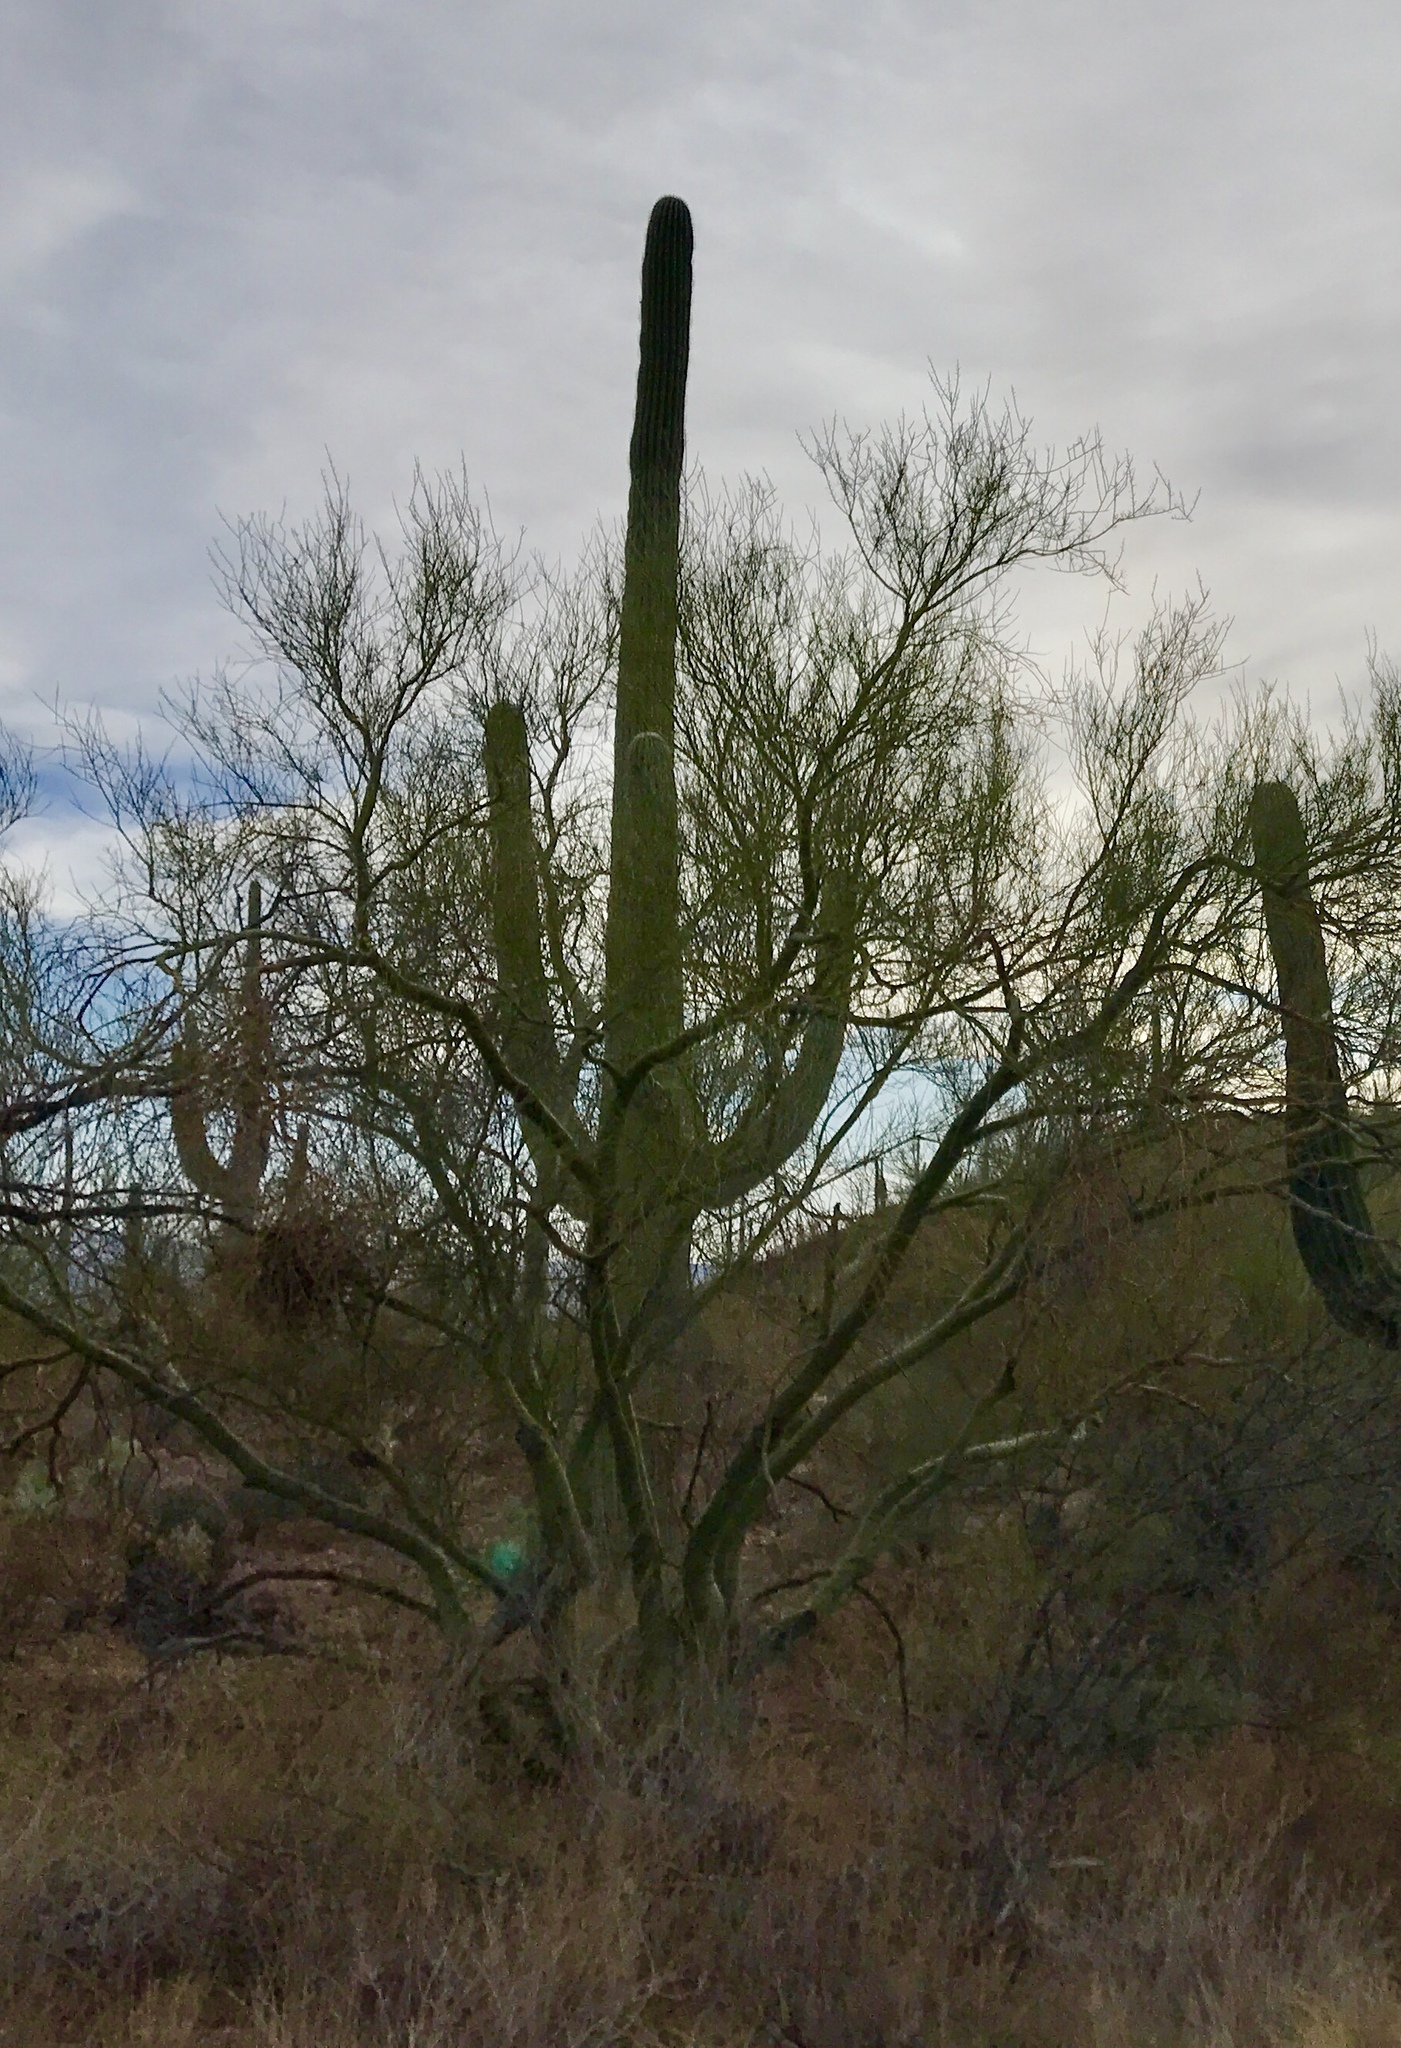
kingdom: Plantae
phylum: Tracheophyta
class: Magnoliopsida
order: Fabales
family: Fabaceae
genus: Parkinsonia
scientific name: Parkinsonia microphylla
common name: Yellow paloverde
